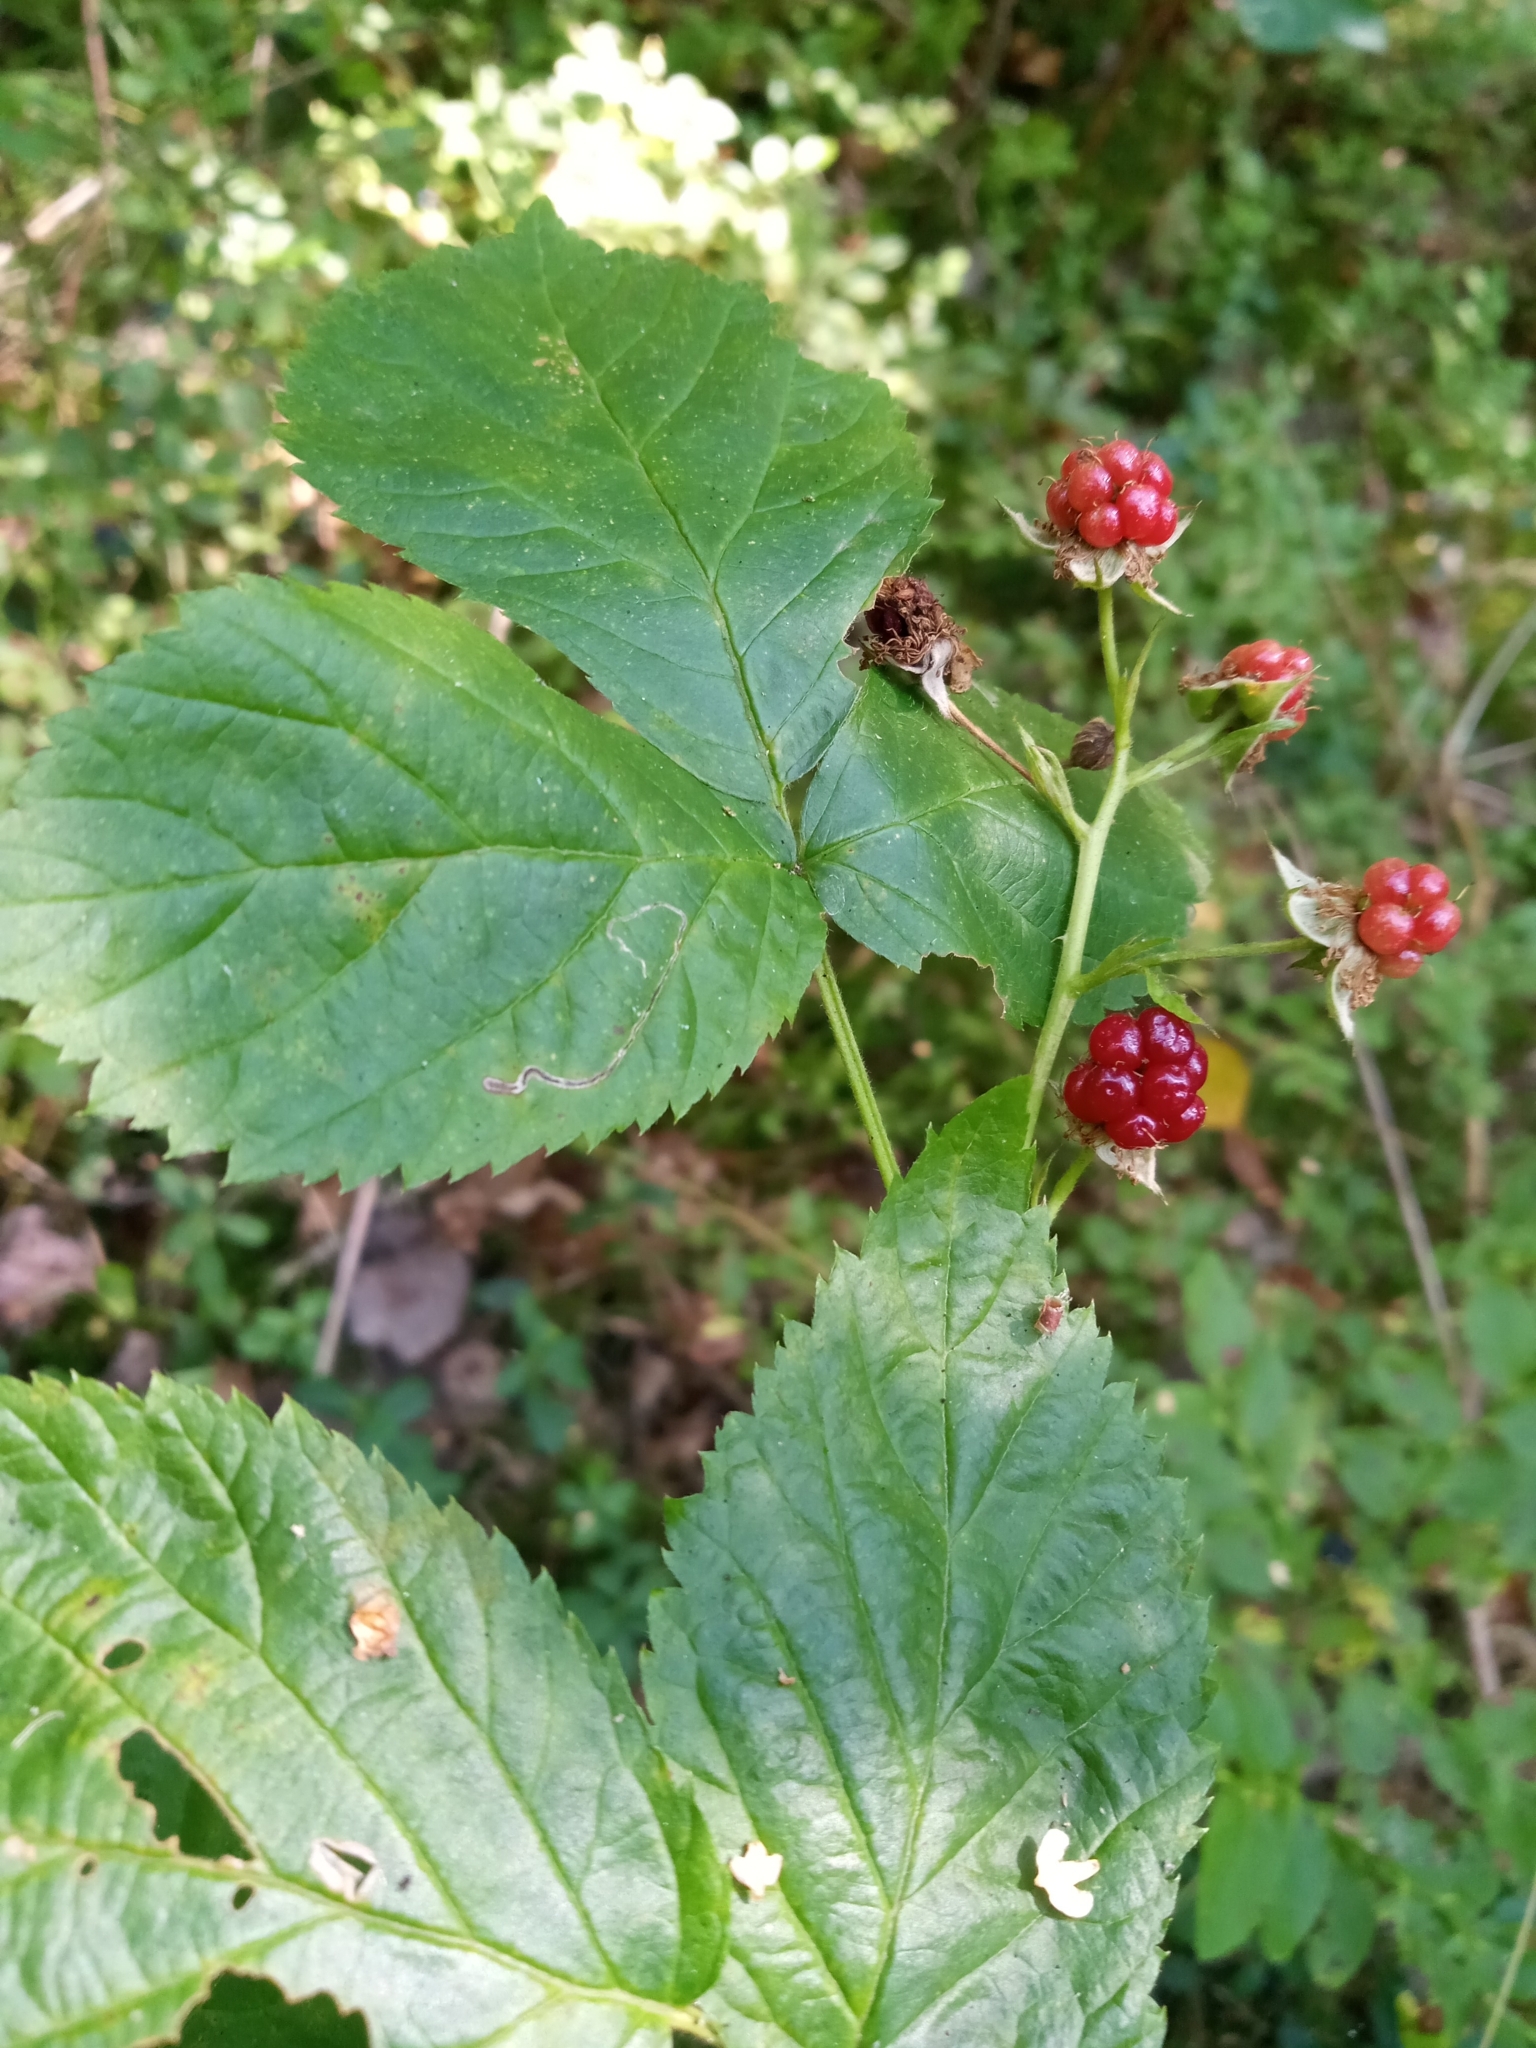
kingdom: Plantae
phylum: Tracheophyta
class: Magnoliopsida
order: Rosales
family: Rosaceae
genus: Rubus
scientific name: Rubus polonicus
